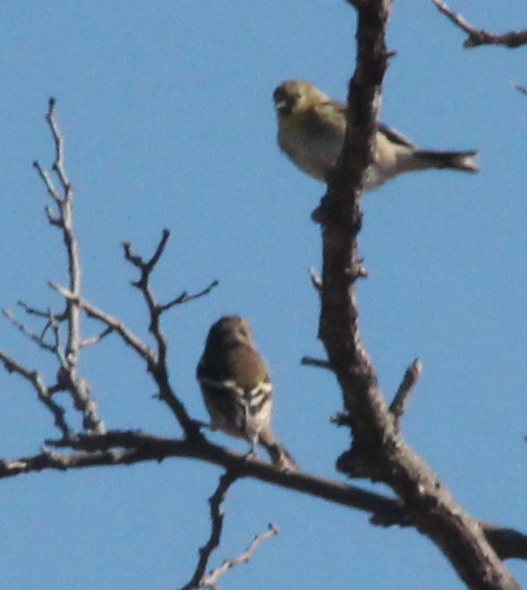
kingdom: Animalia
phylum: Chordata
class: Aves
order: Passeriformes
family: Fringillidae
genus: Spinus
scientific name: Spinus tristis
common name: American goldfinch
